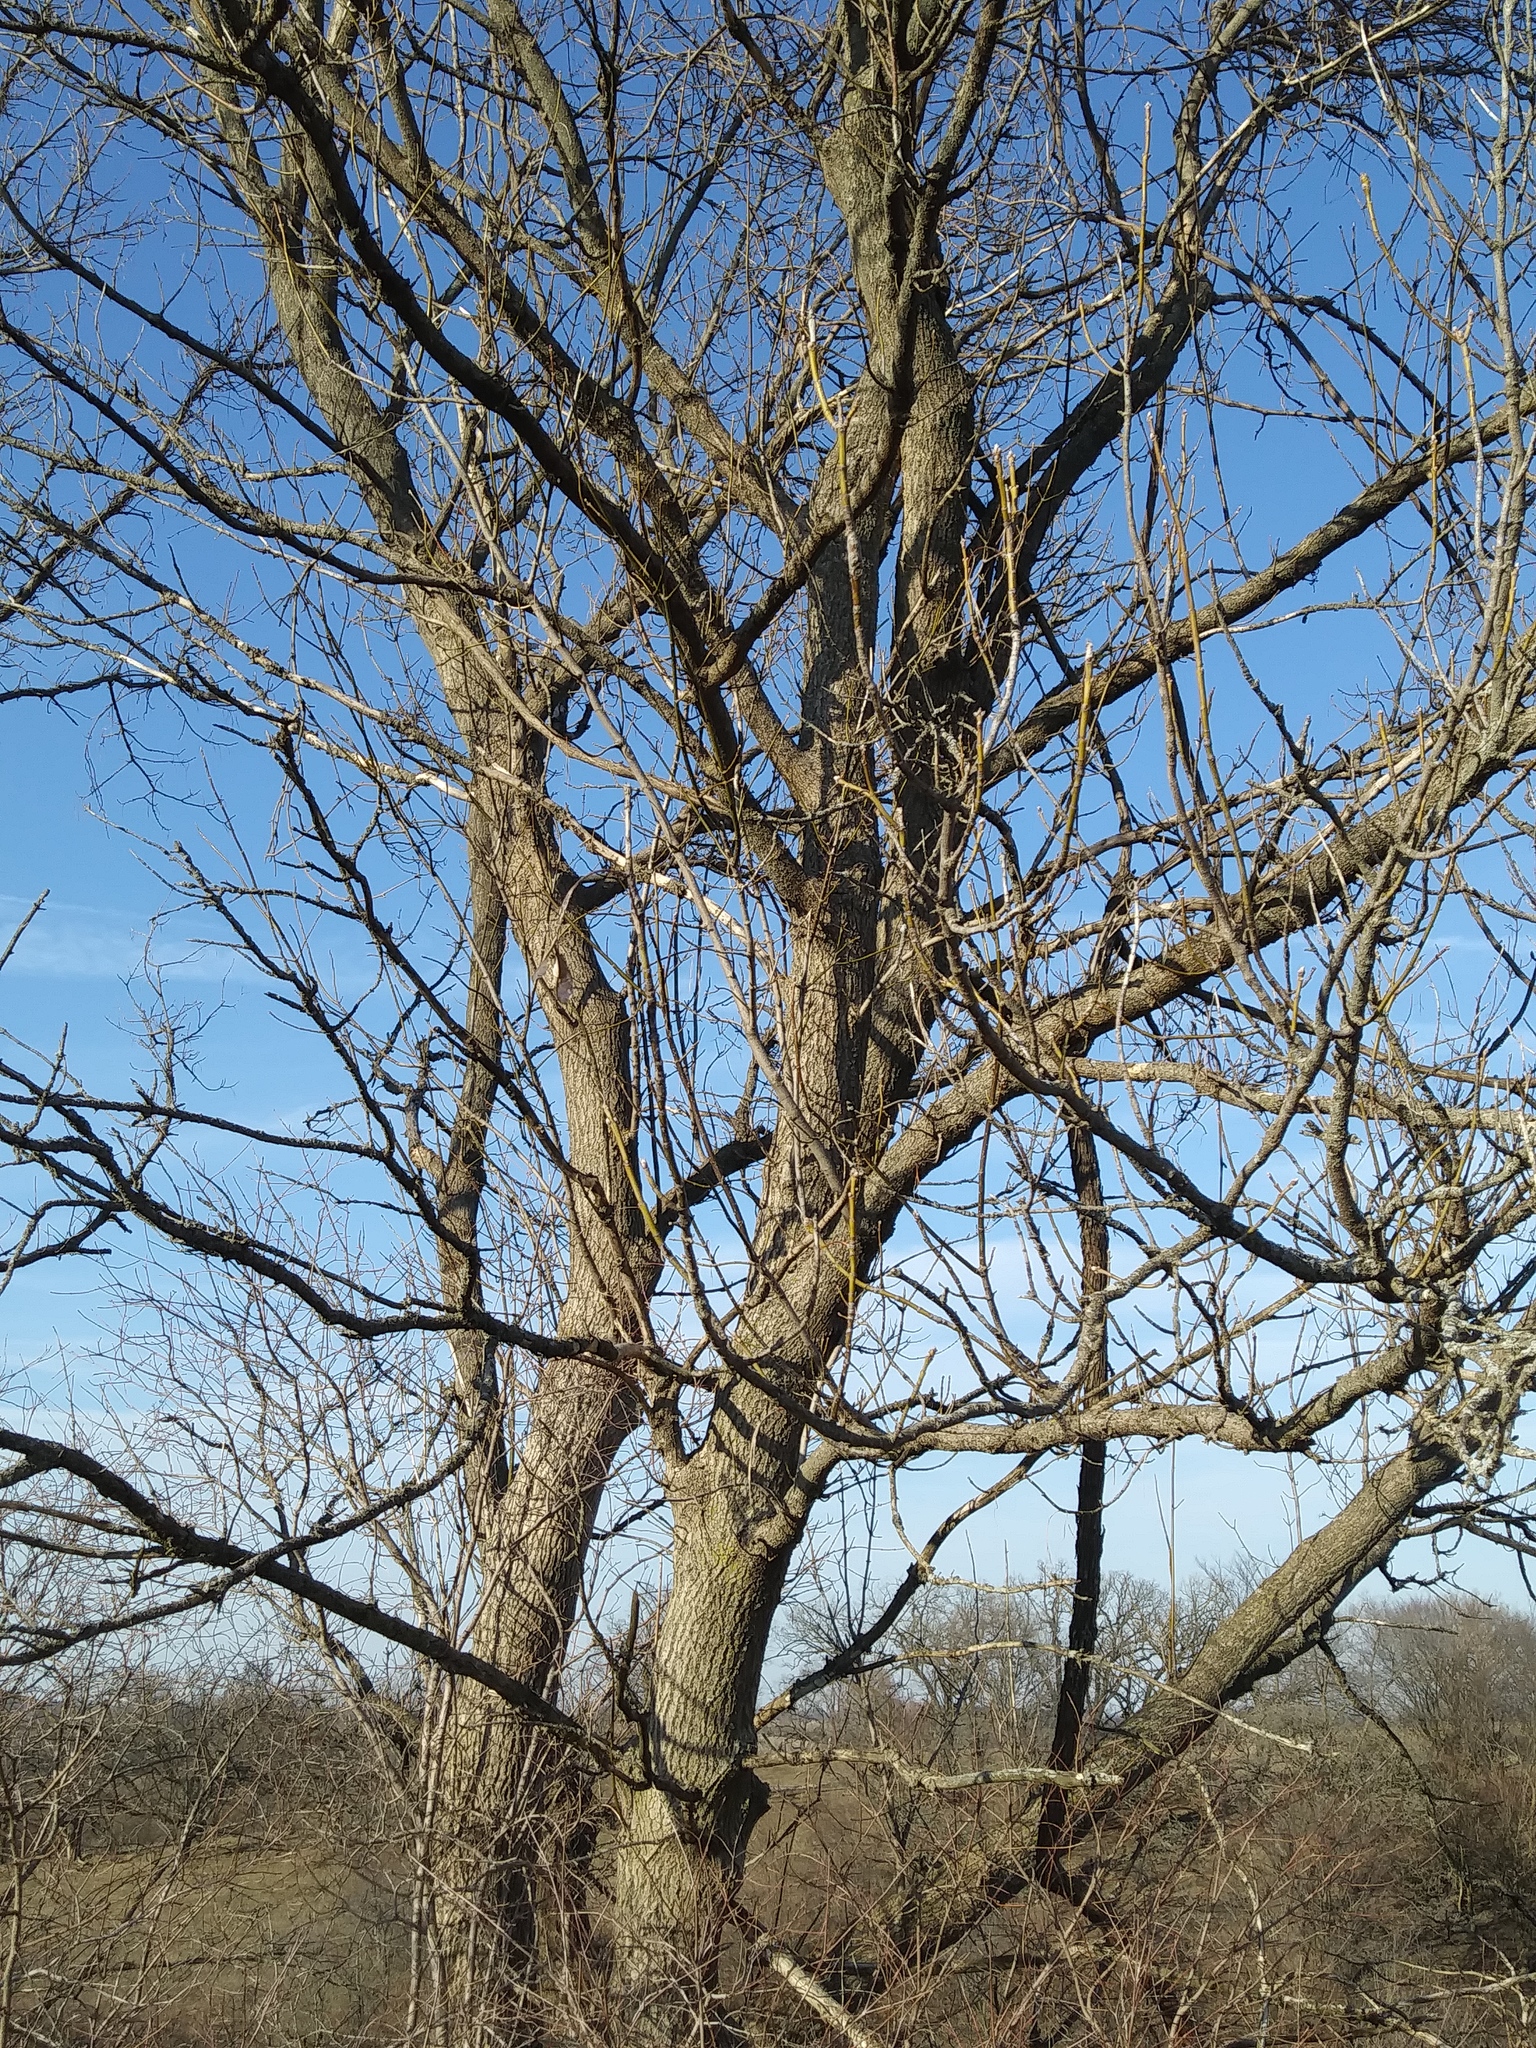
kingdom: Plantae
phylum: Tracheophyta
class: Magnoliopsida
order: Sapindales
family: Sapindaceae
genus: Acer
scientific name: Acer negundo
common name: Ashleaf maple
